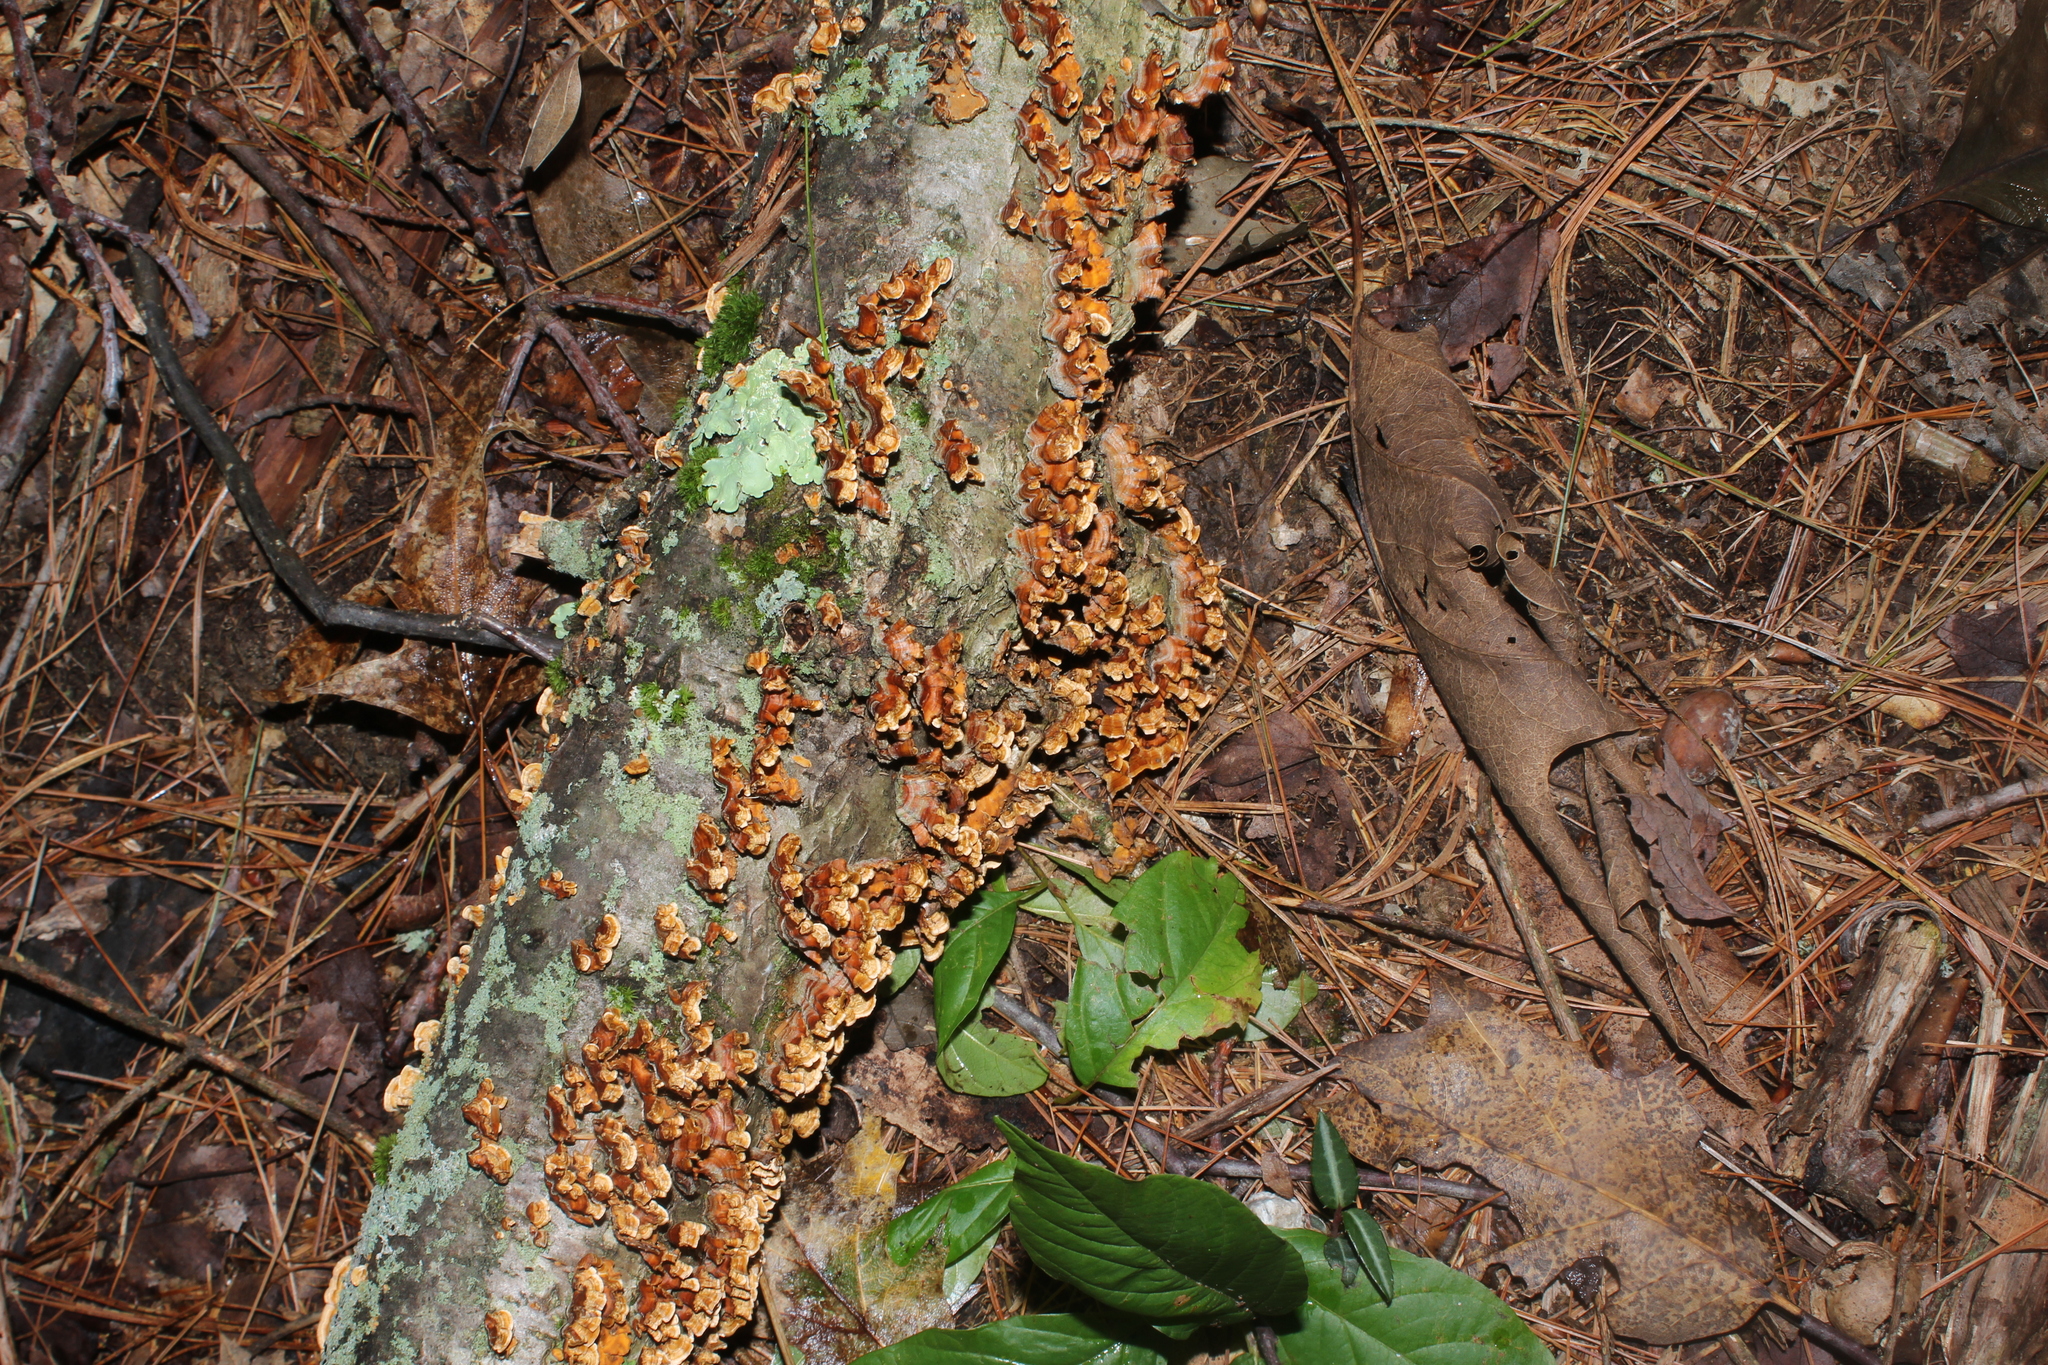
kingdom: Fungi
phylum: Basidiomycota
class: Agaricomycetes
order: Russulales
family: Stereaceae
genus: Stereum
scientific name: Stereum complicatum
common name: Crowded parchment
